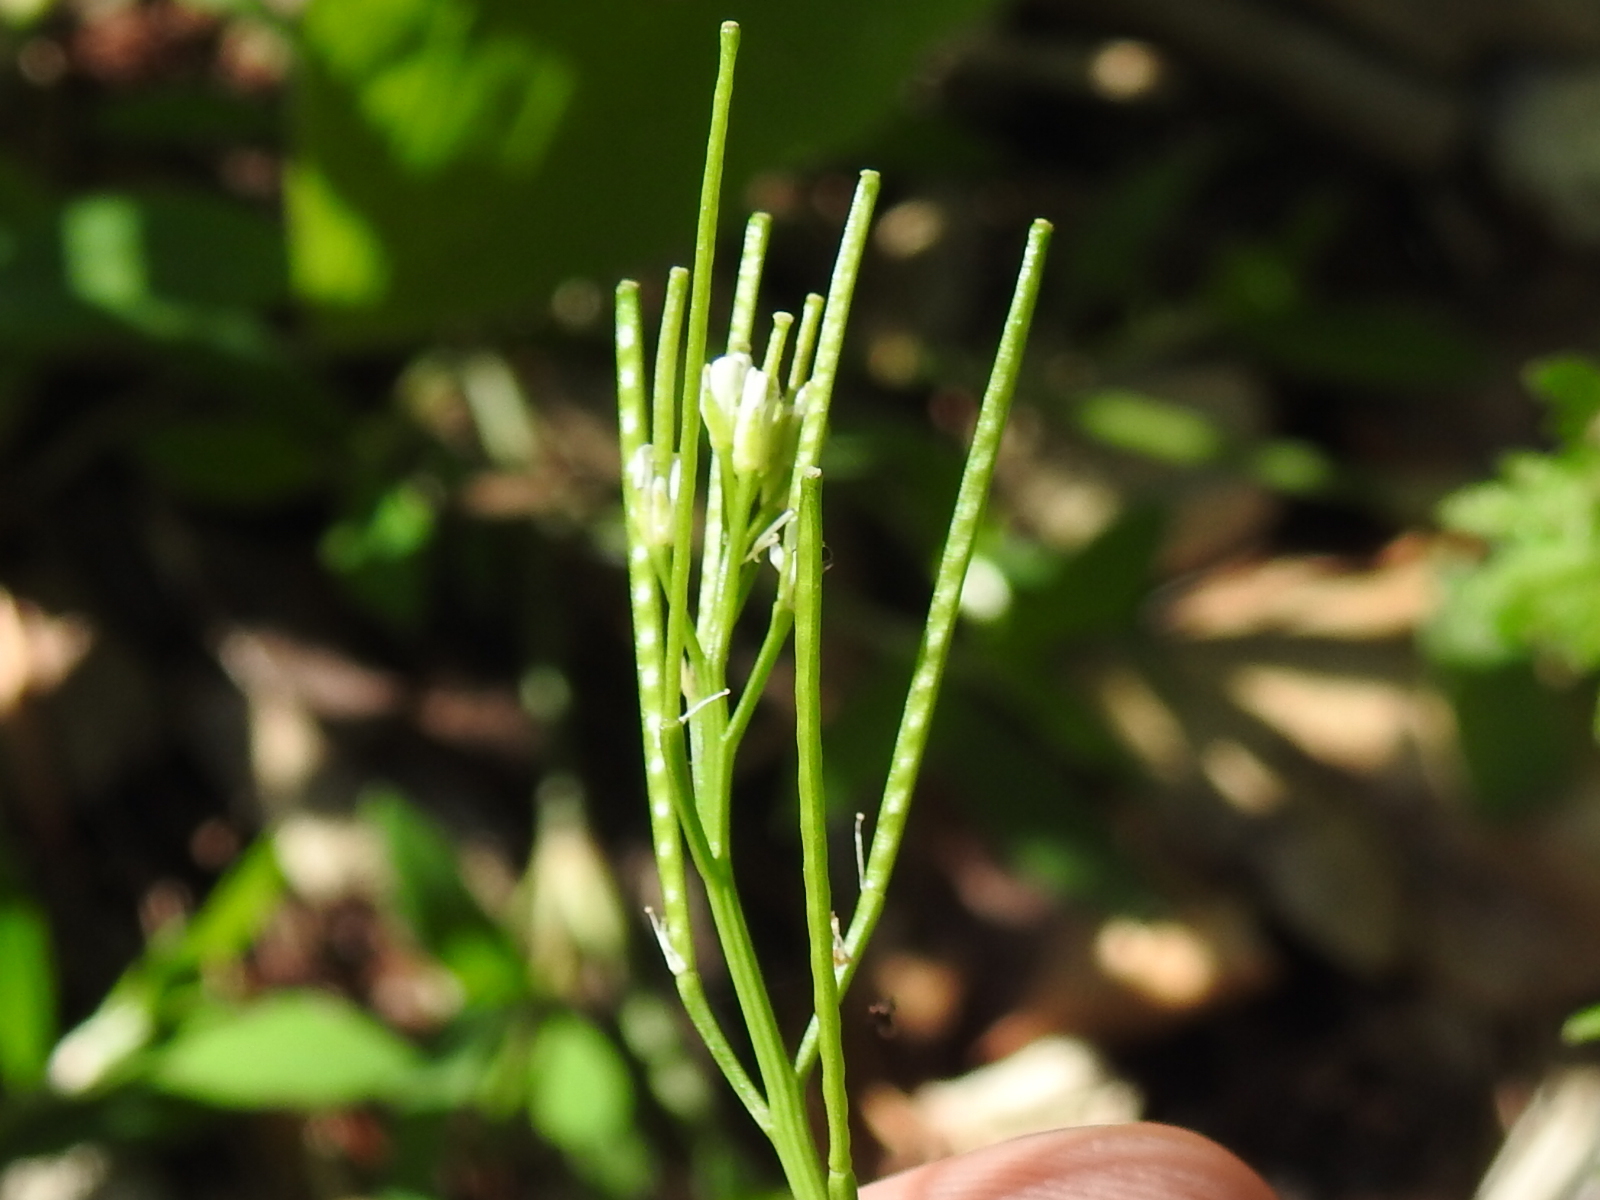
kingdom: Plantae
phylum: Tracheophyta
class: Magnoliopsida
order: Brassicales
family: Brassicaceae
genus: Cardamine
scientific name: Cardamine hirsuta
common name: Hairy bittercress
